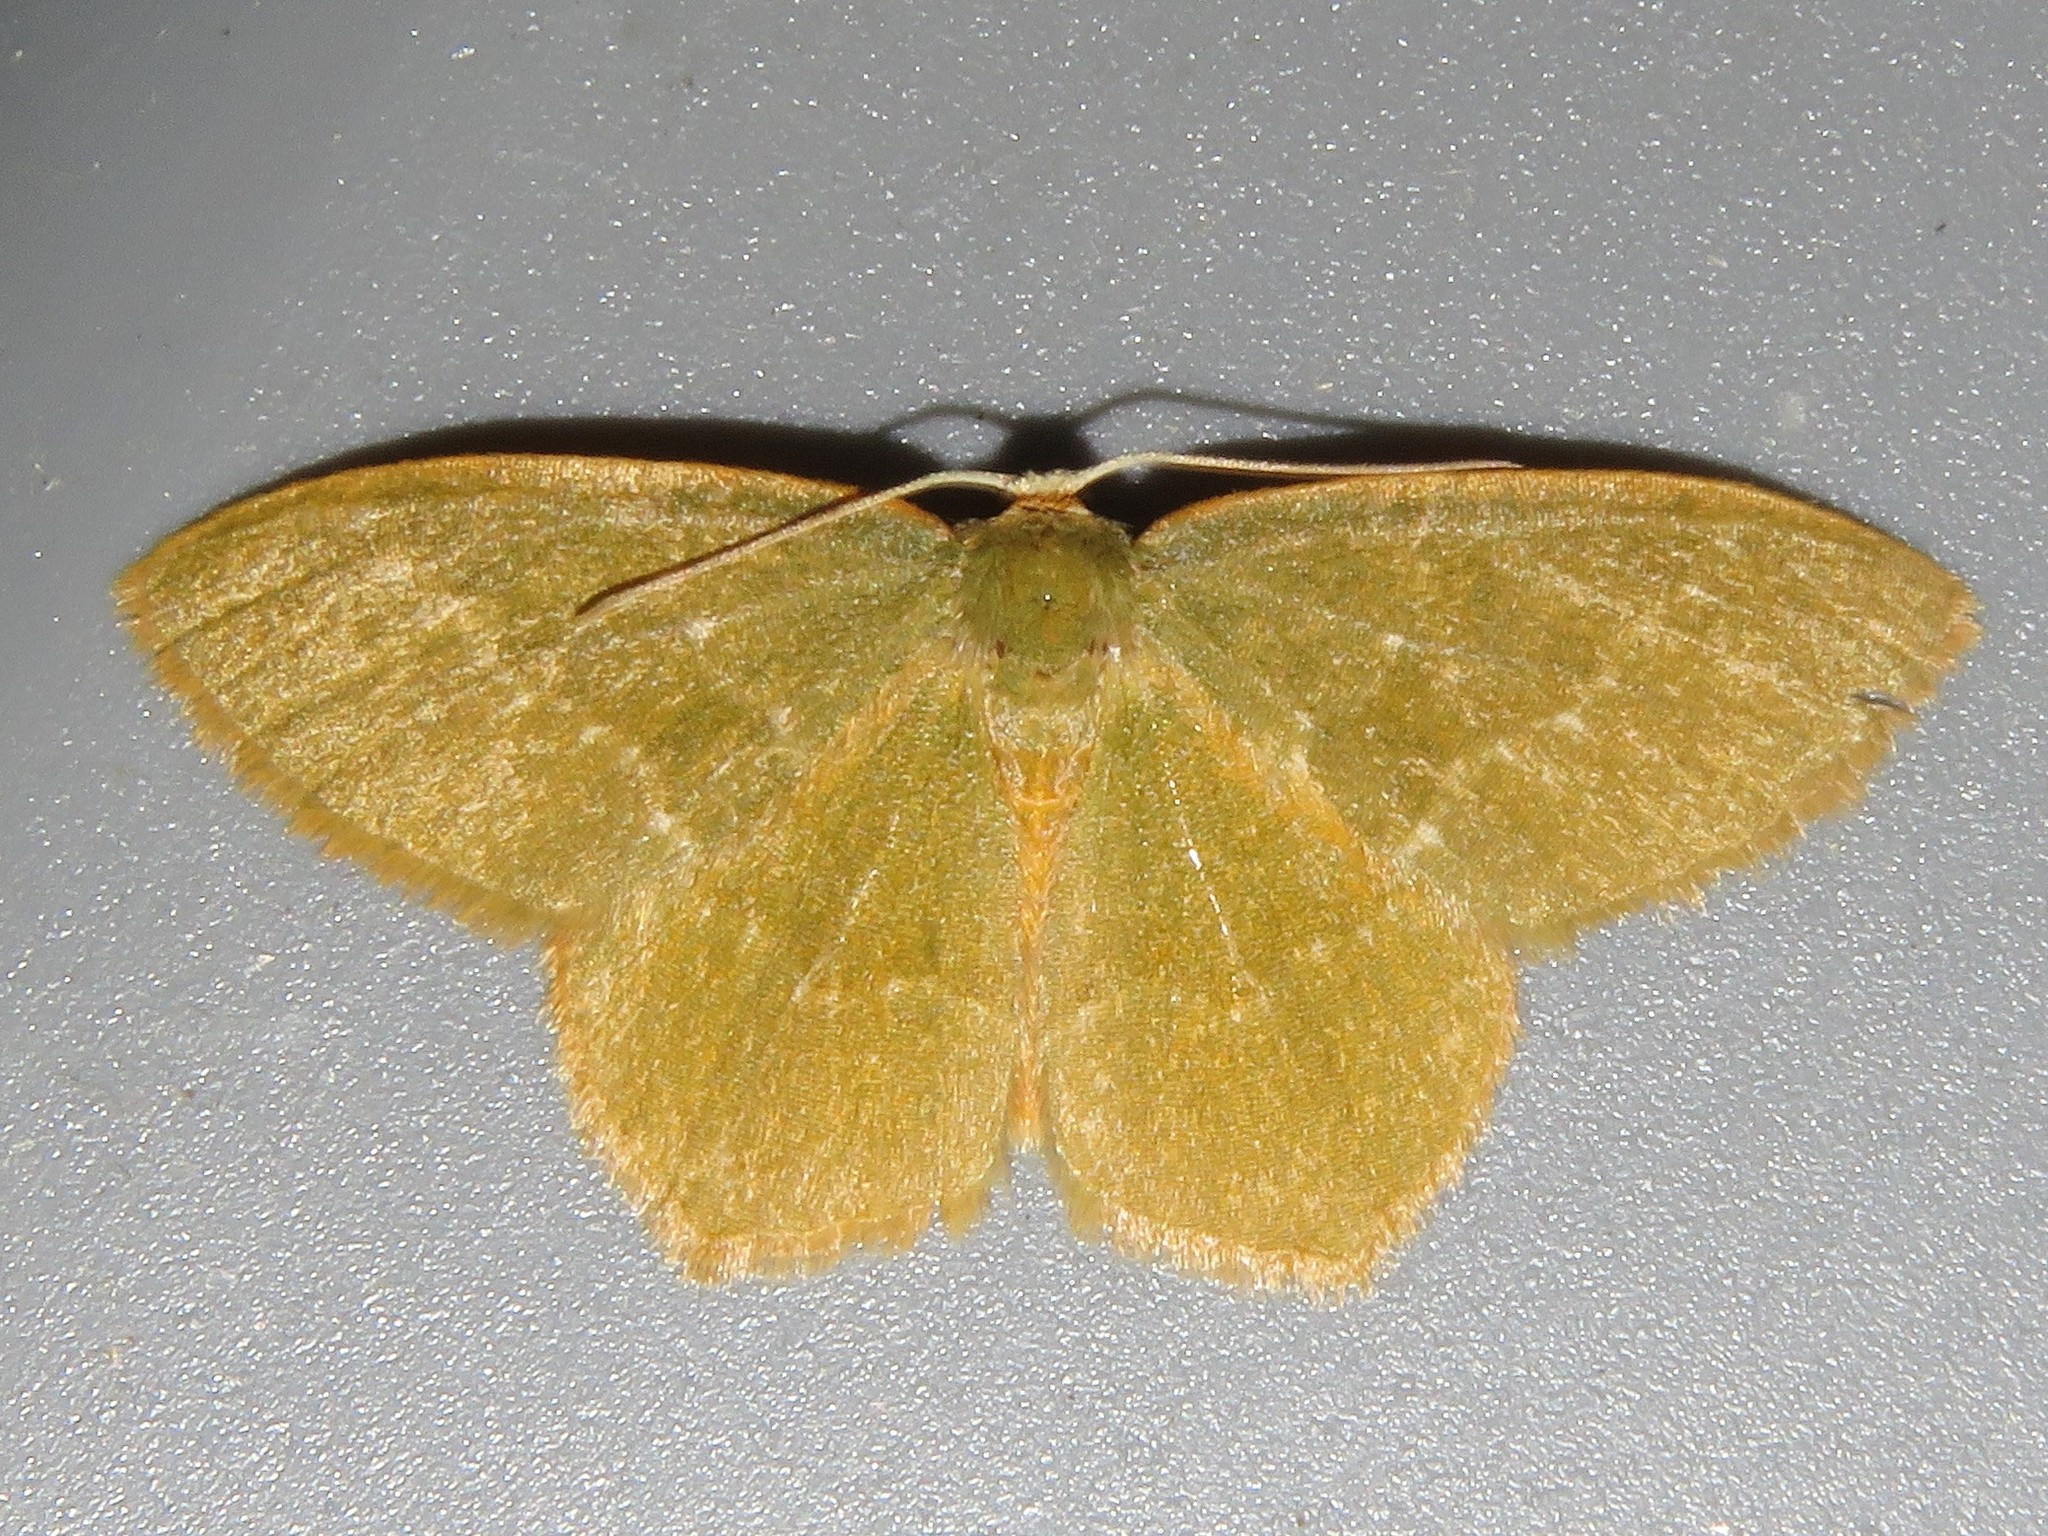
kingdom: Animalia
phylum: Arthropoda
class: Insecta
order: Lepidoptera
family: Geometridae
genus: Thalera
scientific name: Thalera pistasciaria
